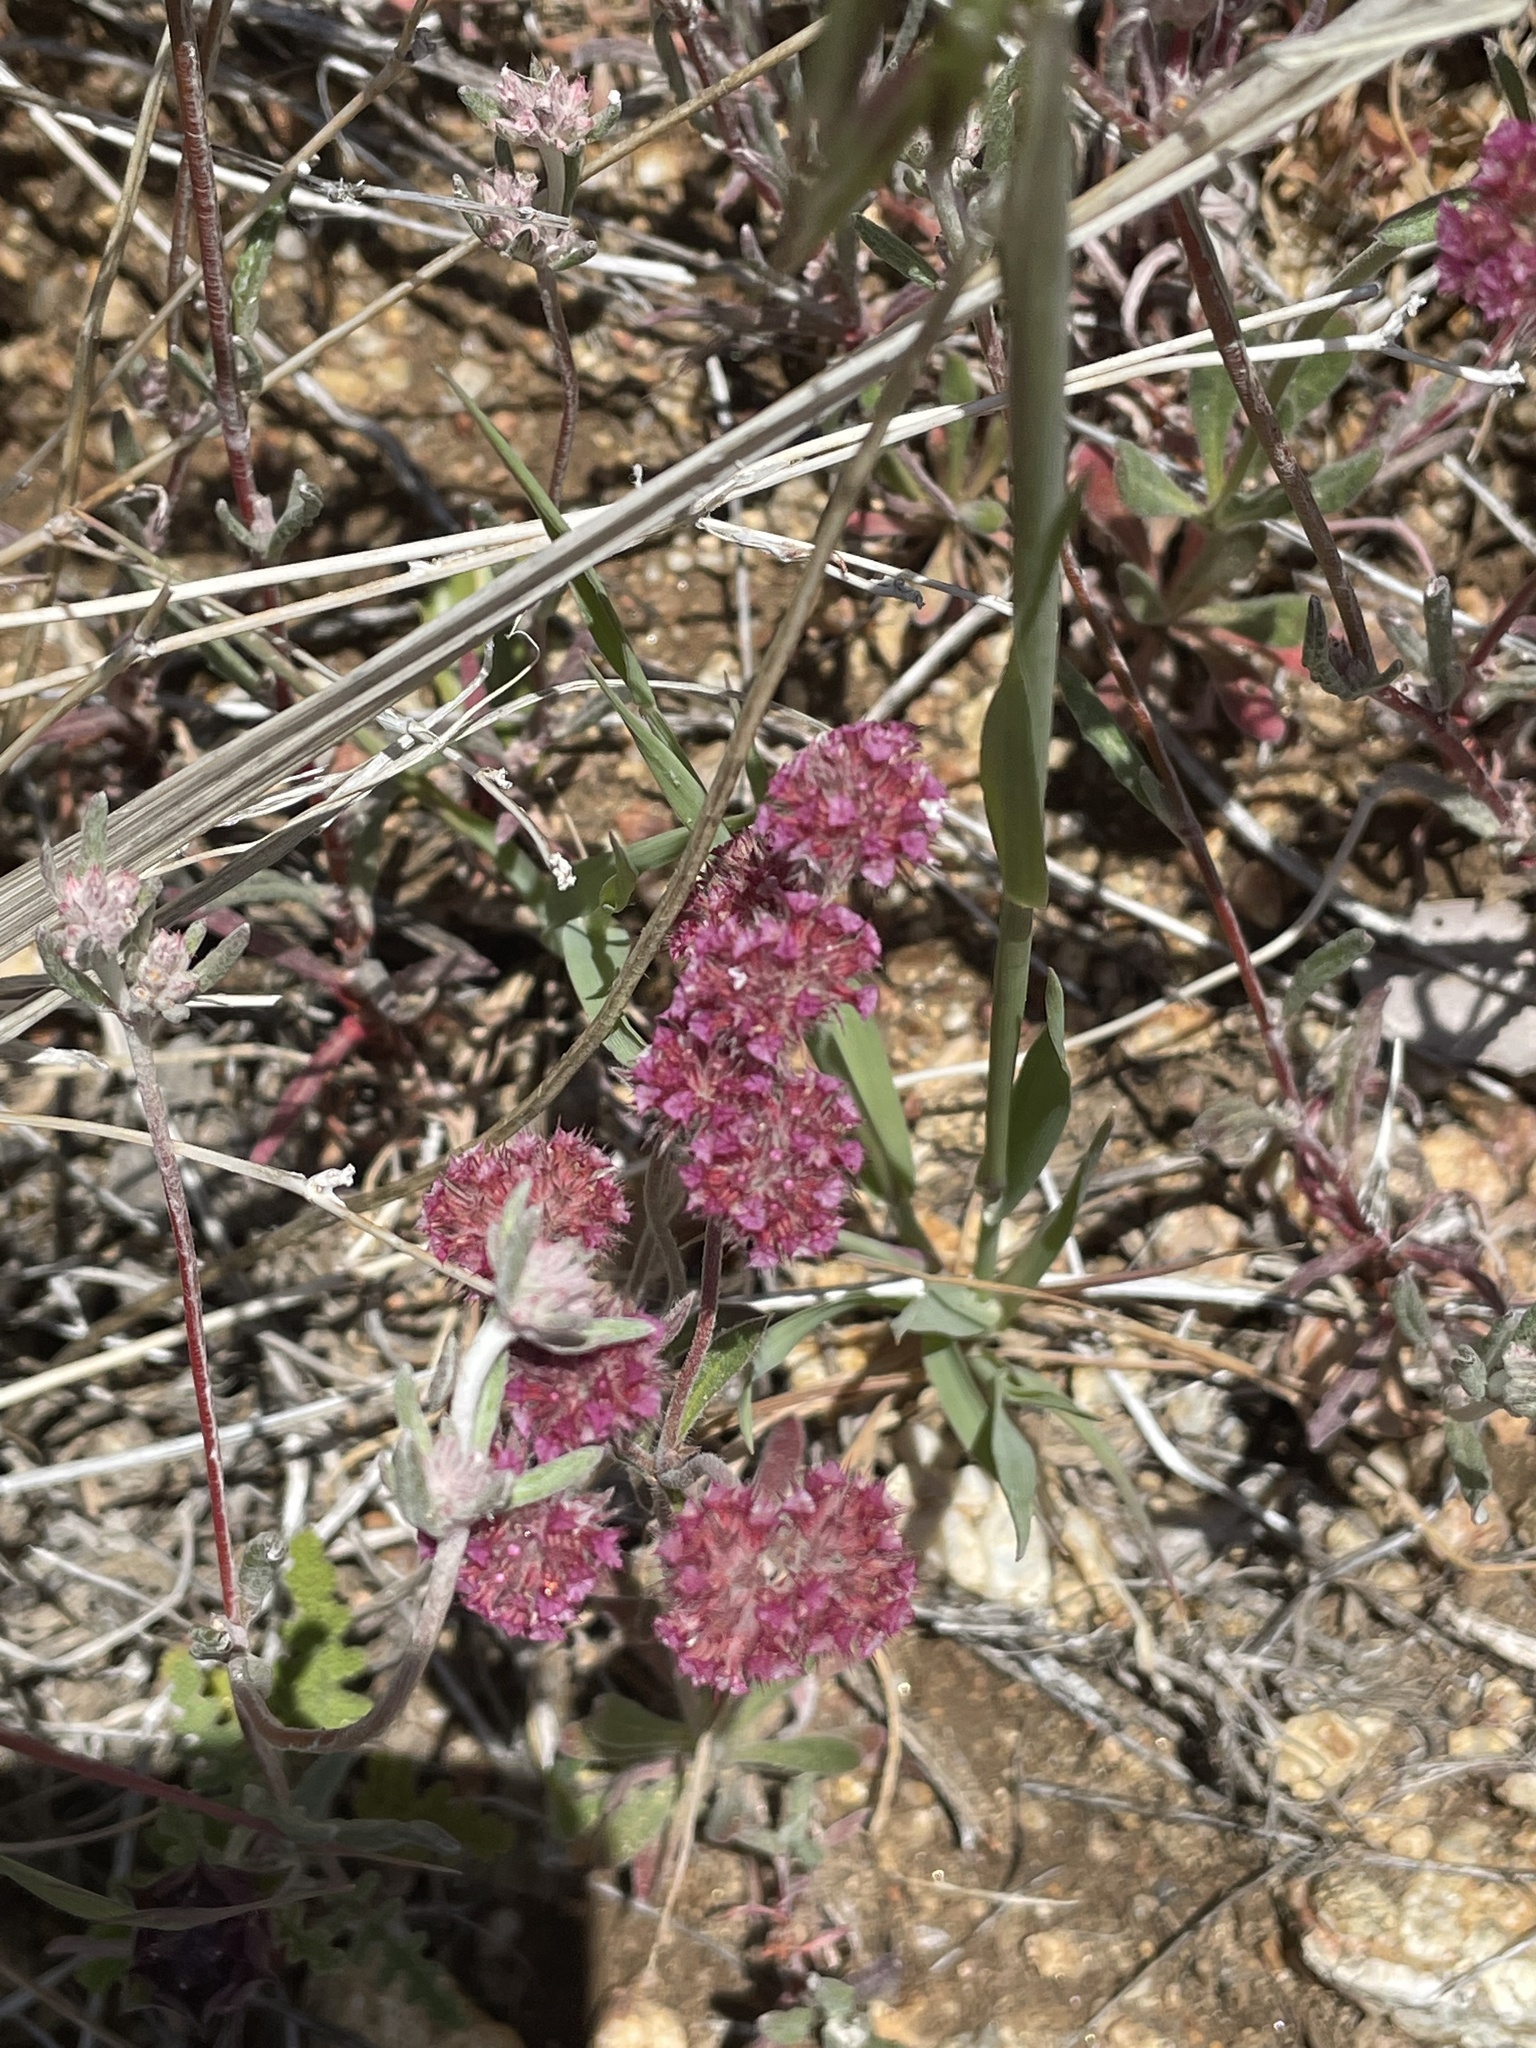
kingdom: Plantae
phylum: Tracheophyta
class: Magnoliopsida
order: Caryophyllales
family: Polygonaceae
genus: Chorizanthe
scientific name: Chorizanthe douglasii
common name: Douglas's spineflower
